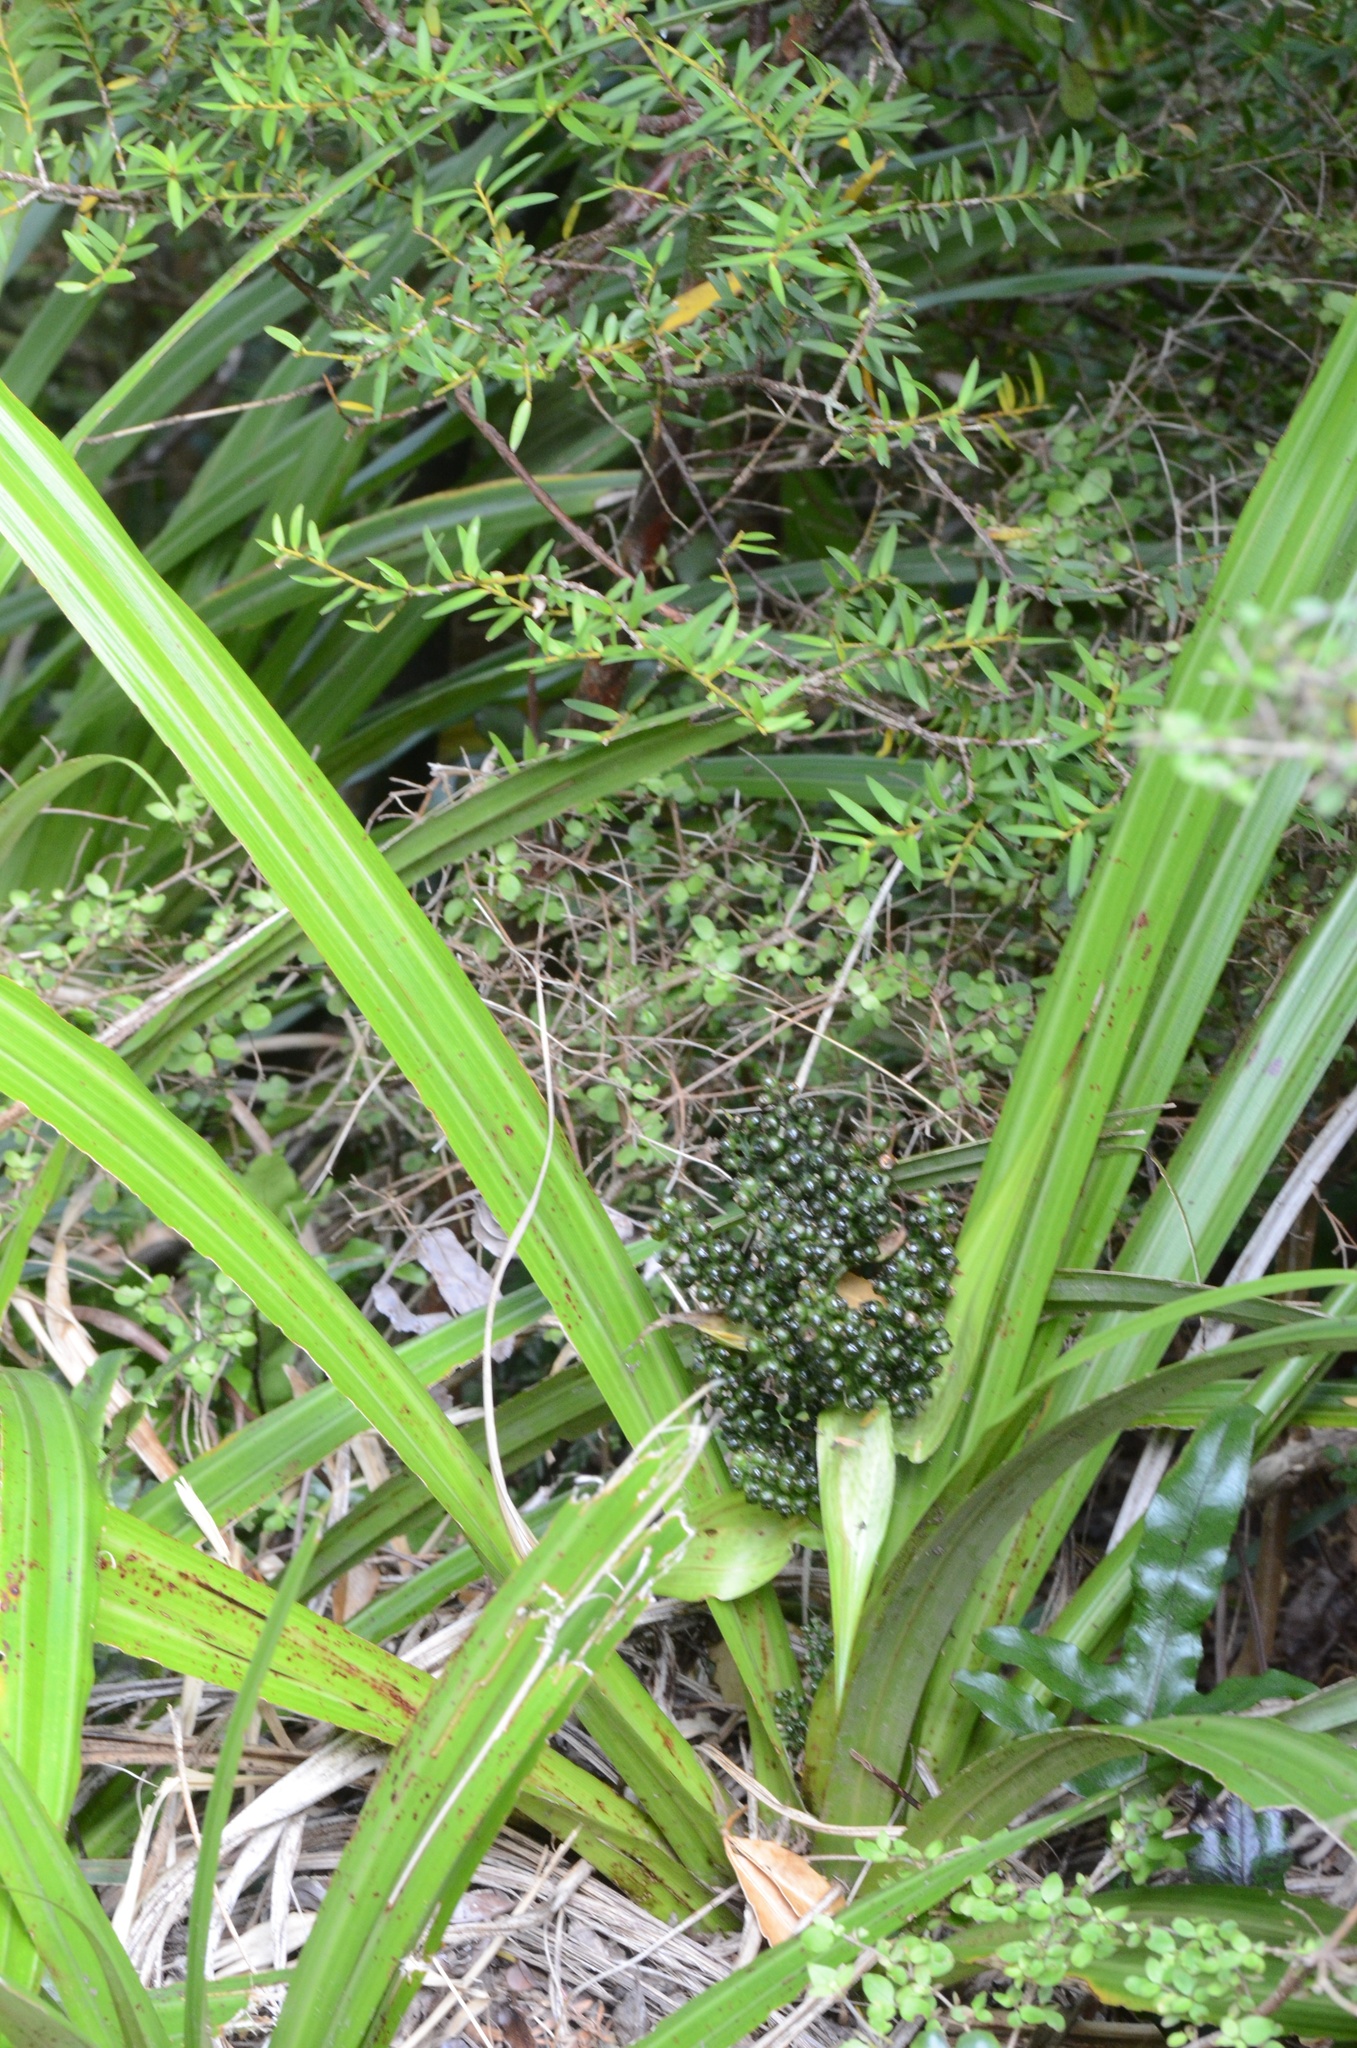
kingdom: Plantae
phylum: Tracheophyta
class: Liliopsida
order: Asparagales
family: Asteliaceae
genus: Astelia
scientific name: Astelia fragrans
